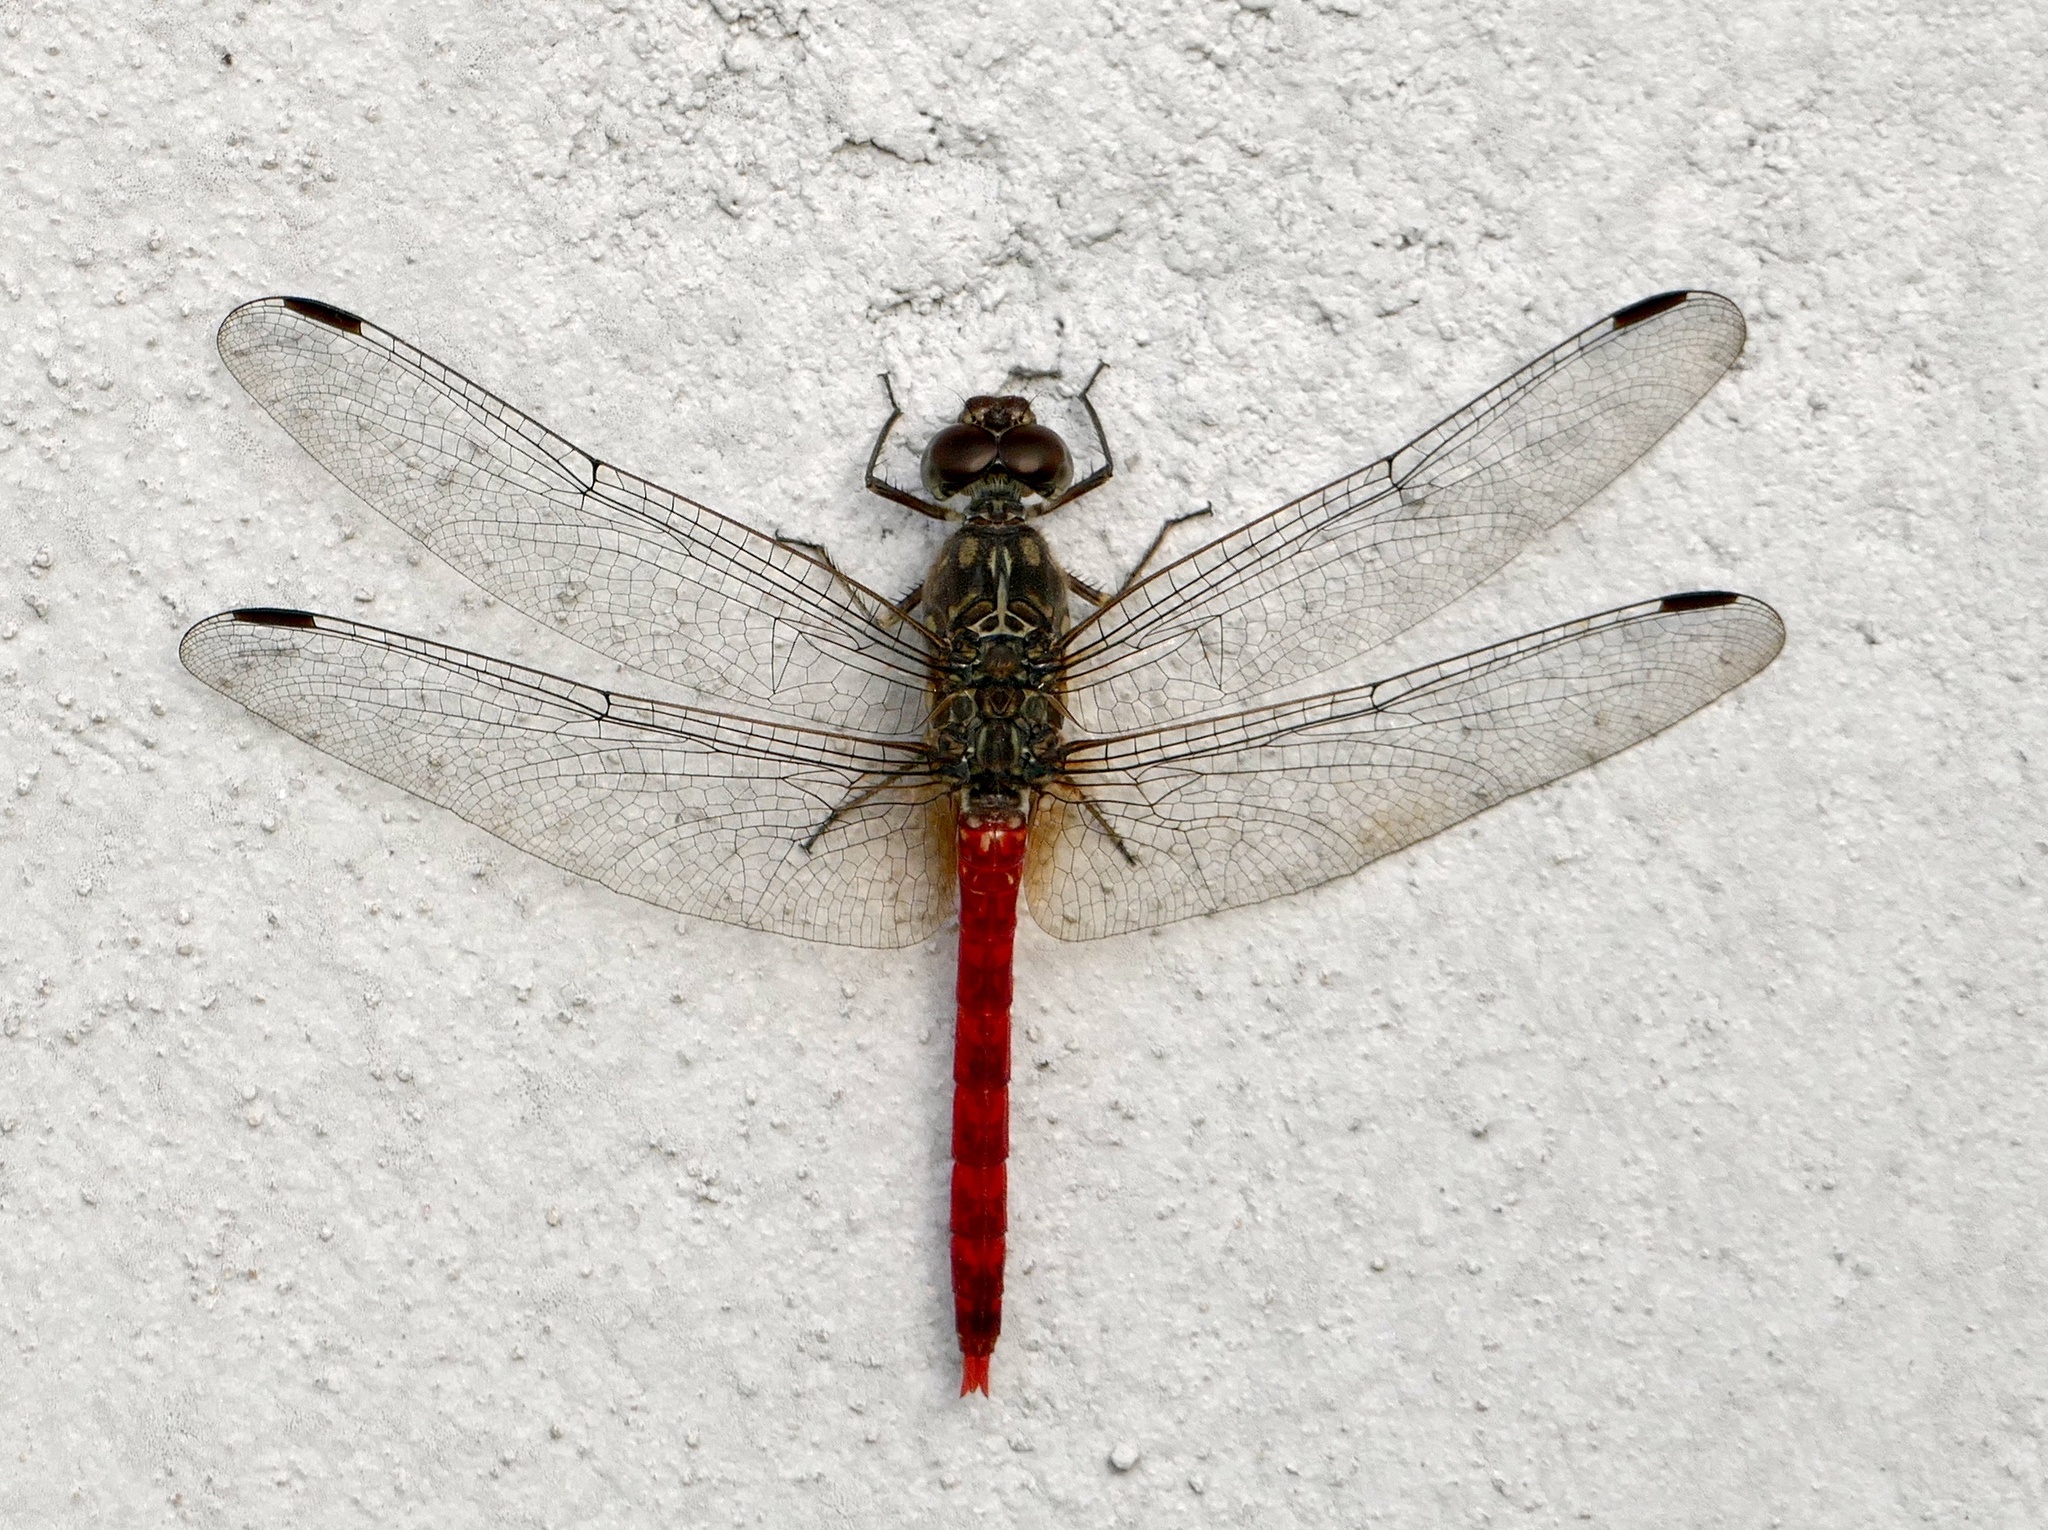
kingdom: Animalia
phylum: Arthropoda
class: Insecta
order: Odonata
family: Libellulidae
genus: Bradinopyga
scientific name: Bradinopyga strachani
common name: Red rock-dweller
